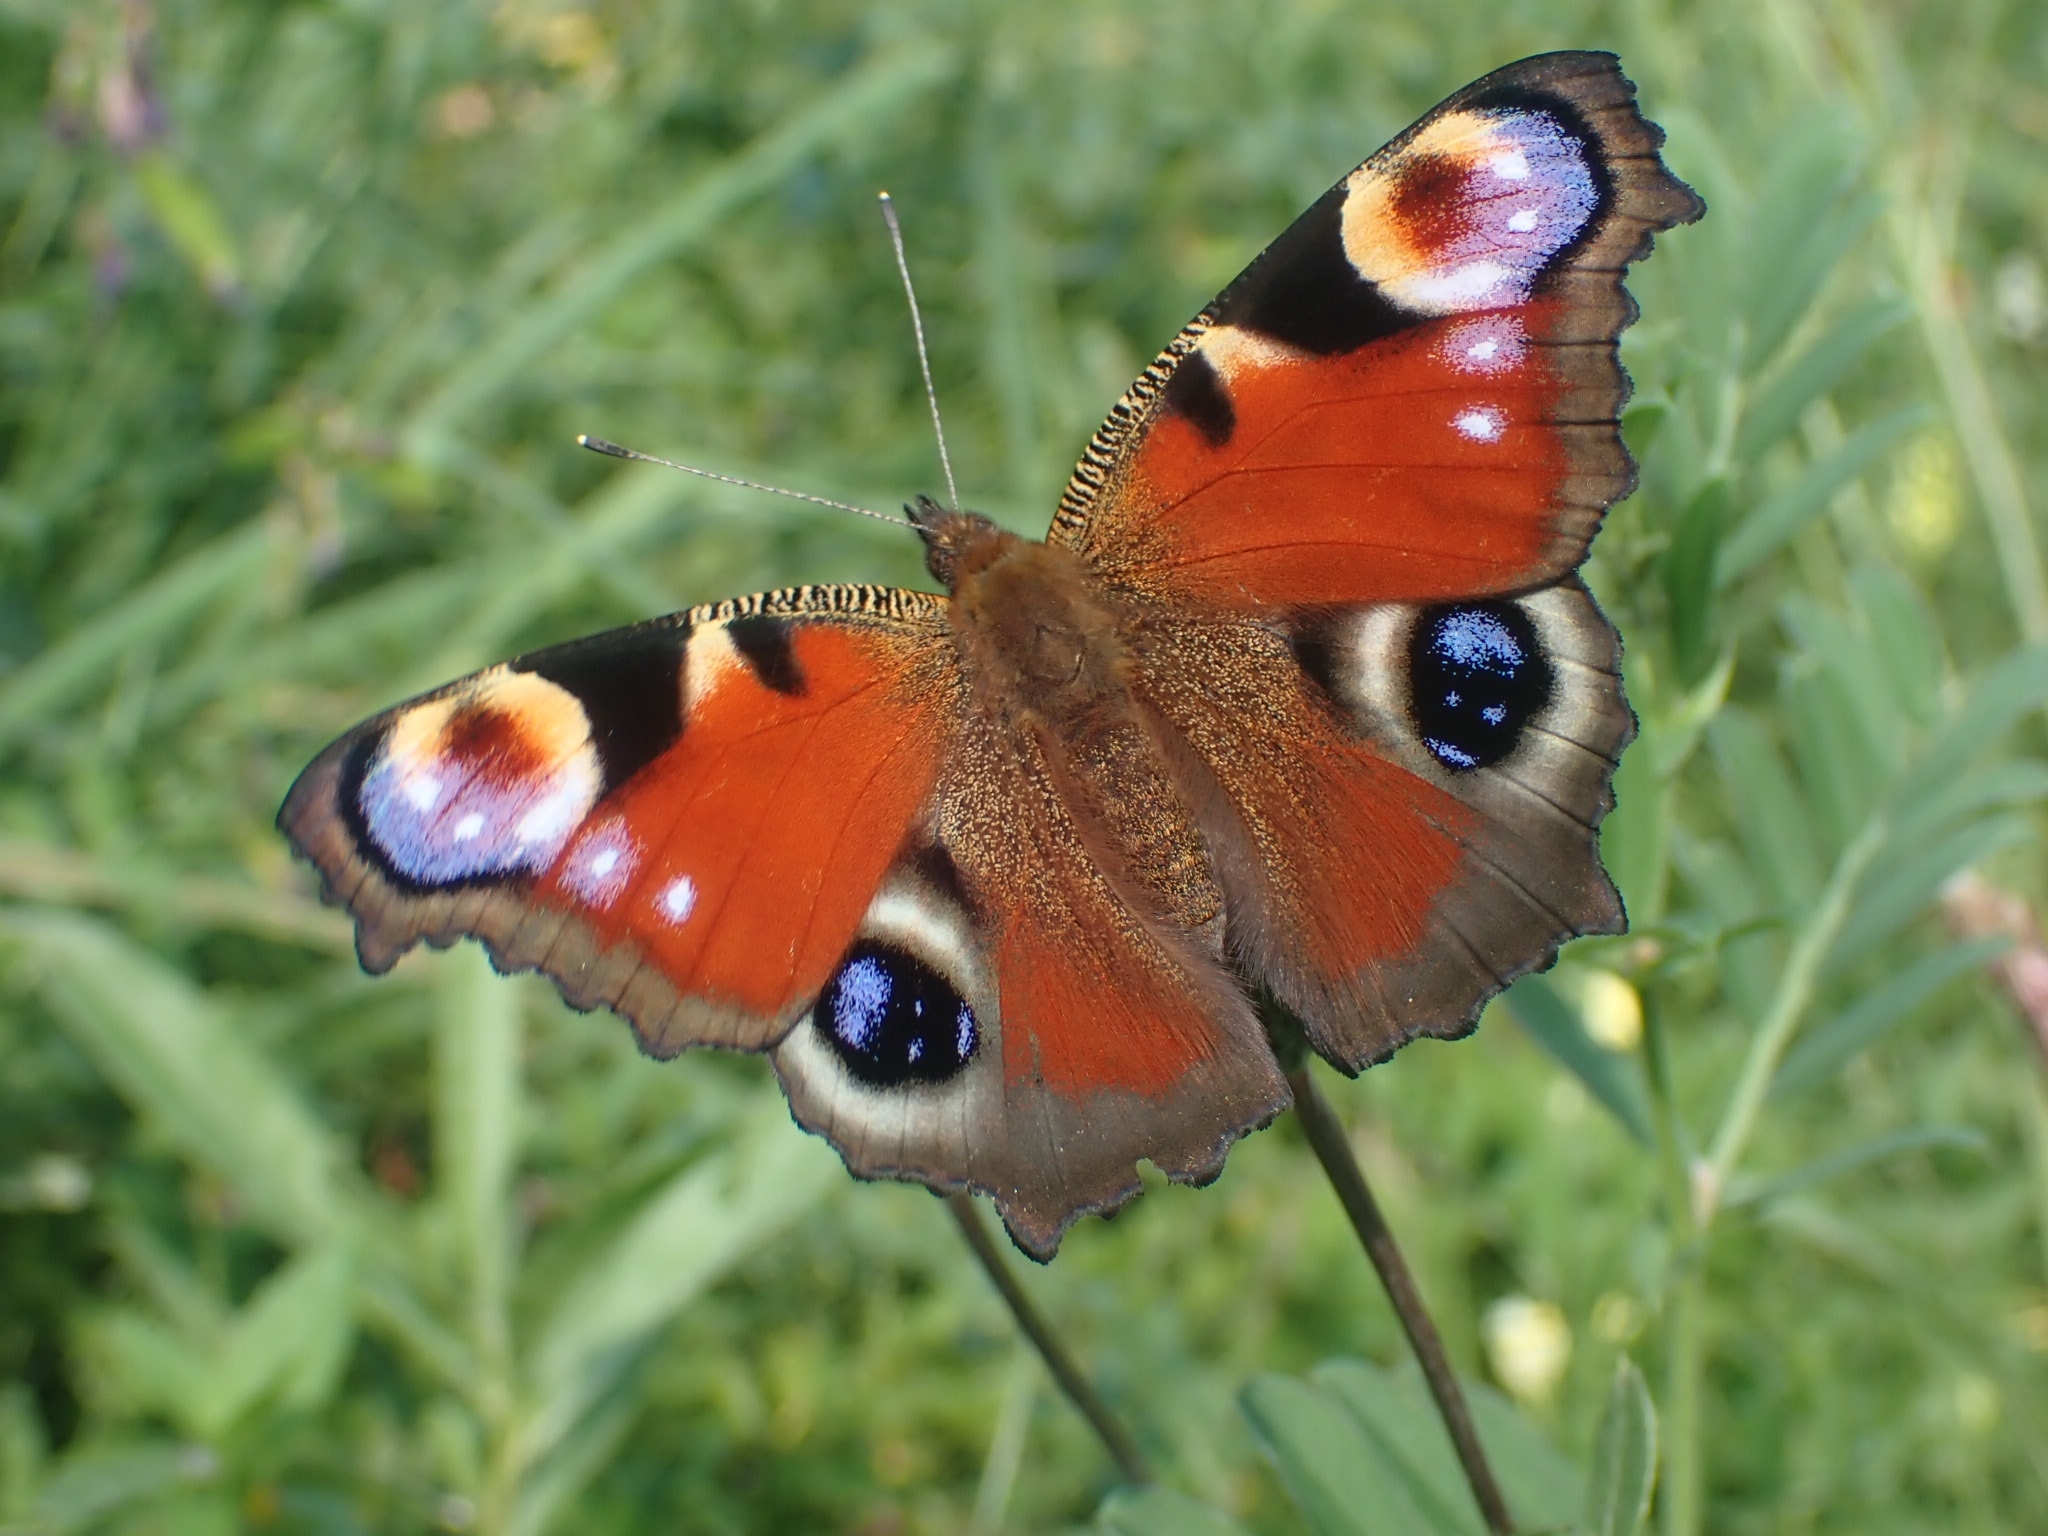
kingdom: Animalia
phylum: Arthropoda
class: Insecta
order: Lepidoptera
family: Nymphalidae
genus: Aglais
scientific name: Aglais io
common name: Peacock
